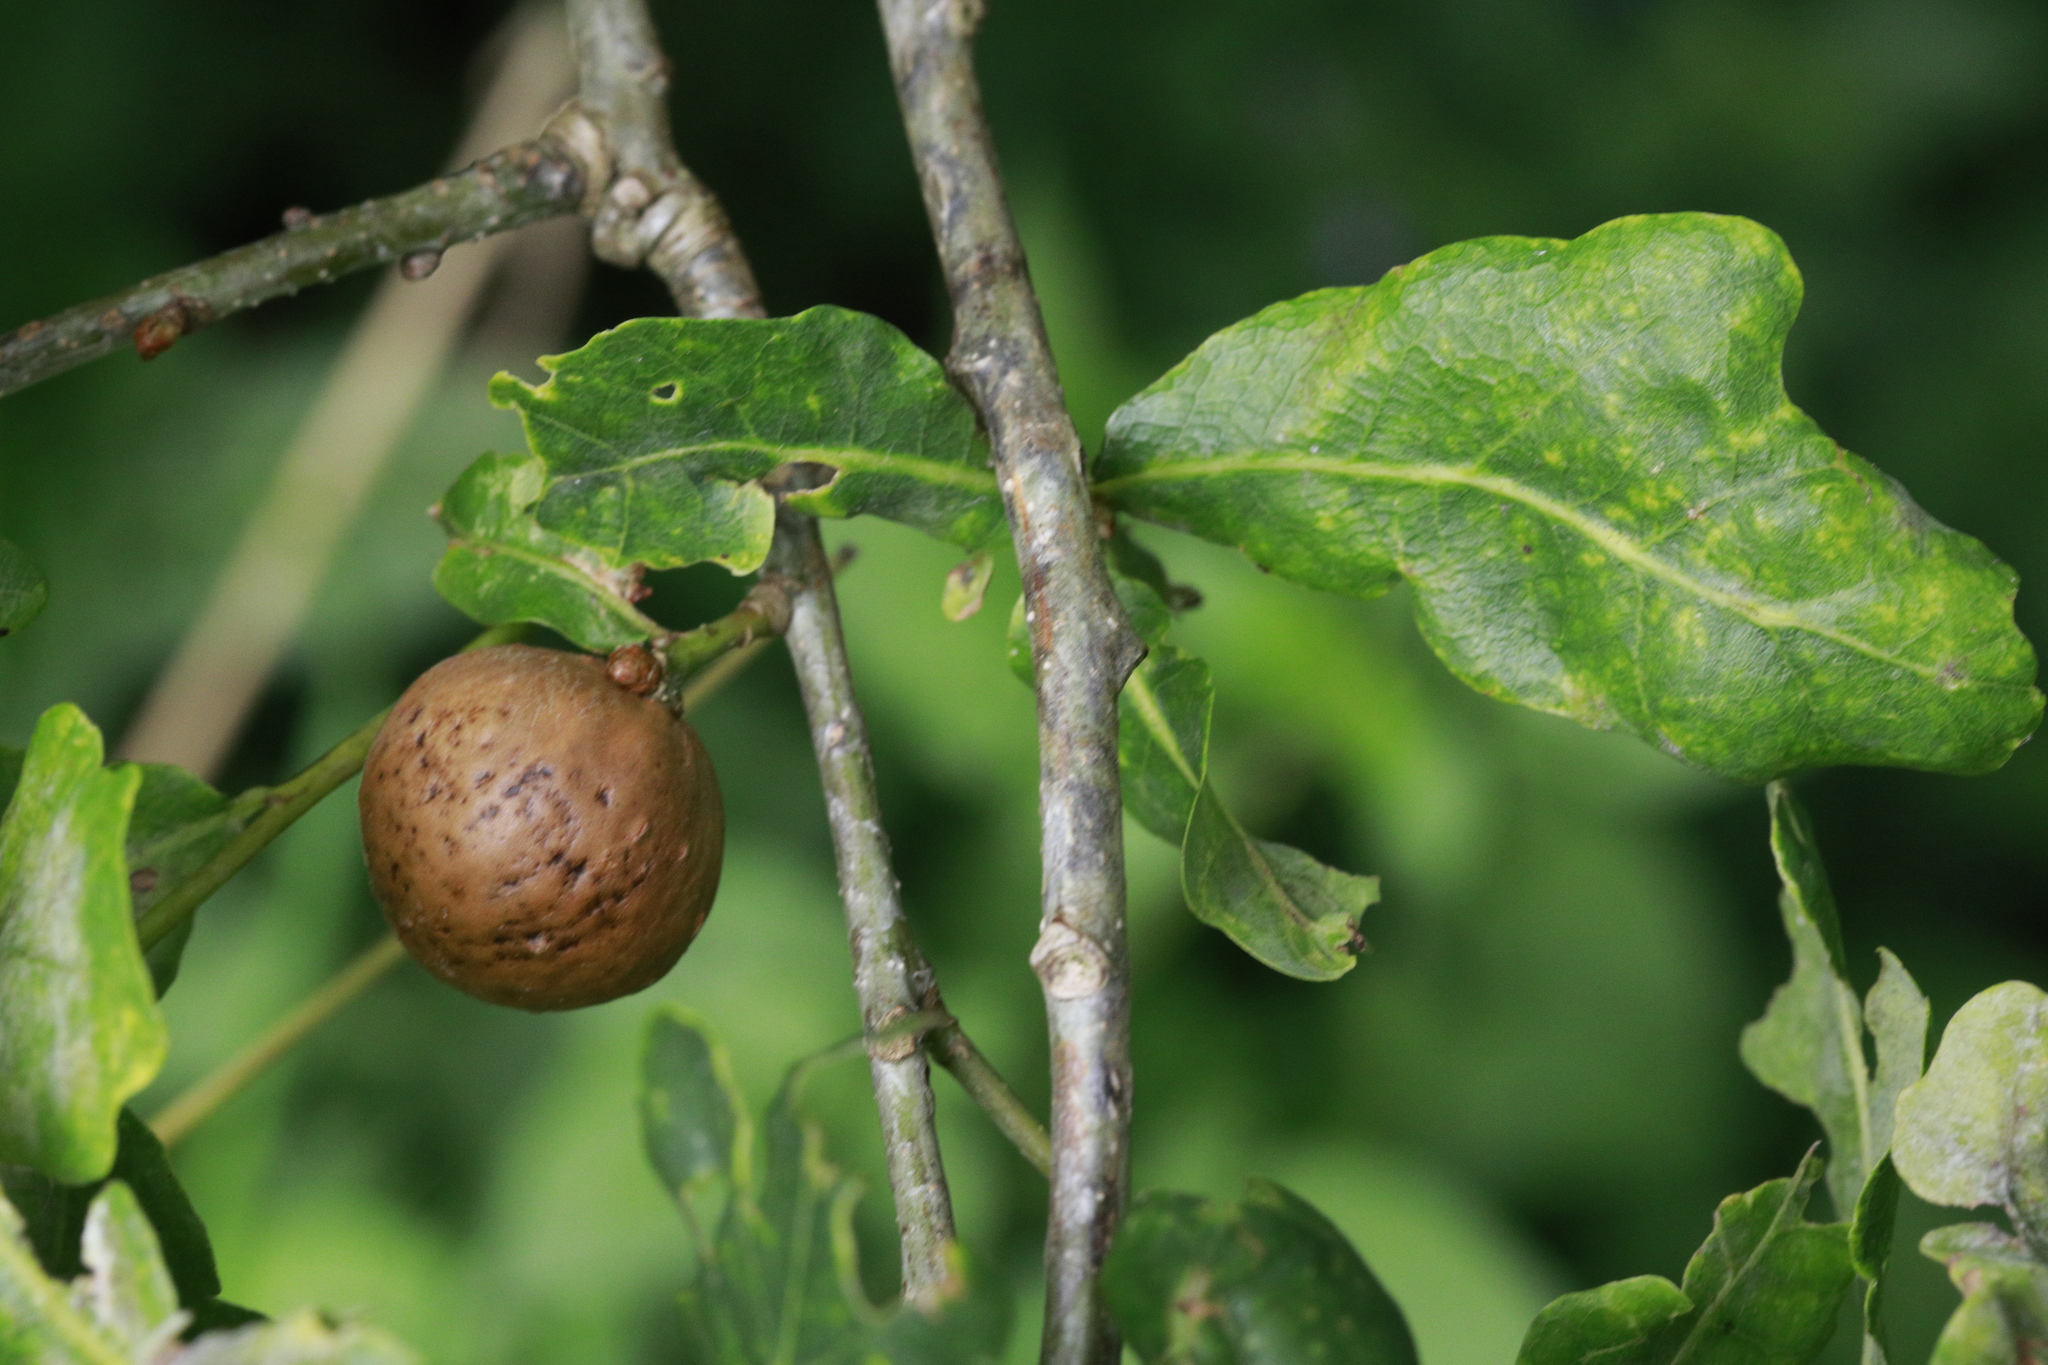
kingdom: Animalia
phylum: Arthropoda
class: Insecta
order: Hymenoptera
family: Cynipidae
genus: Andricus
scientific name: Andricus kollari
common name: Marble gall
